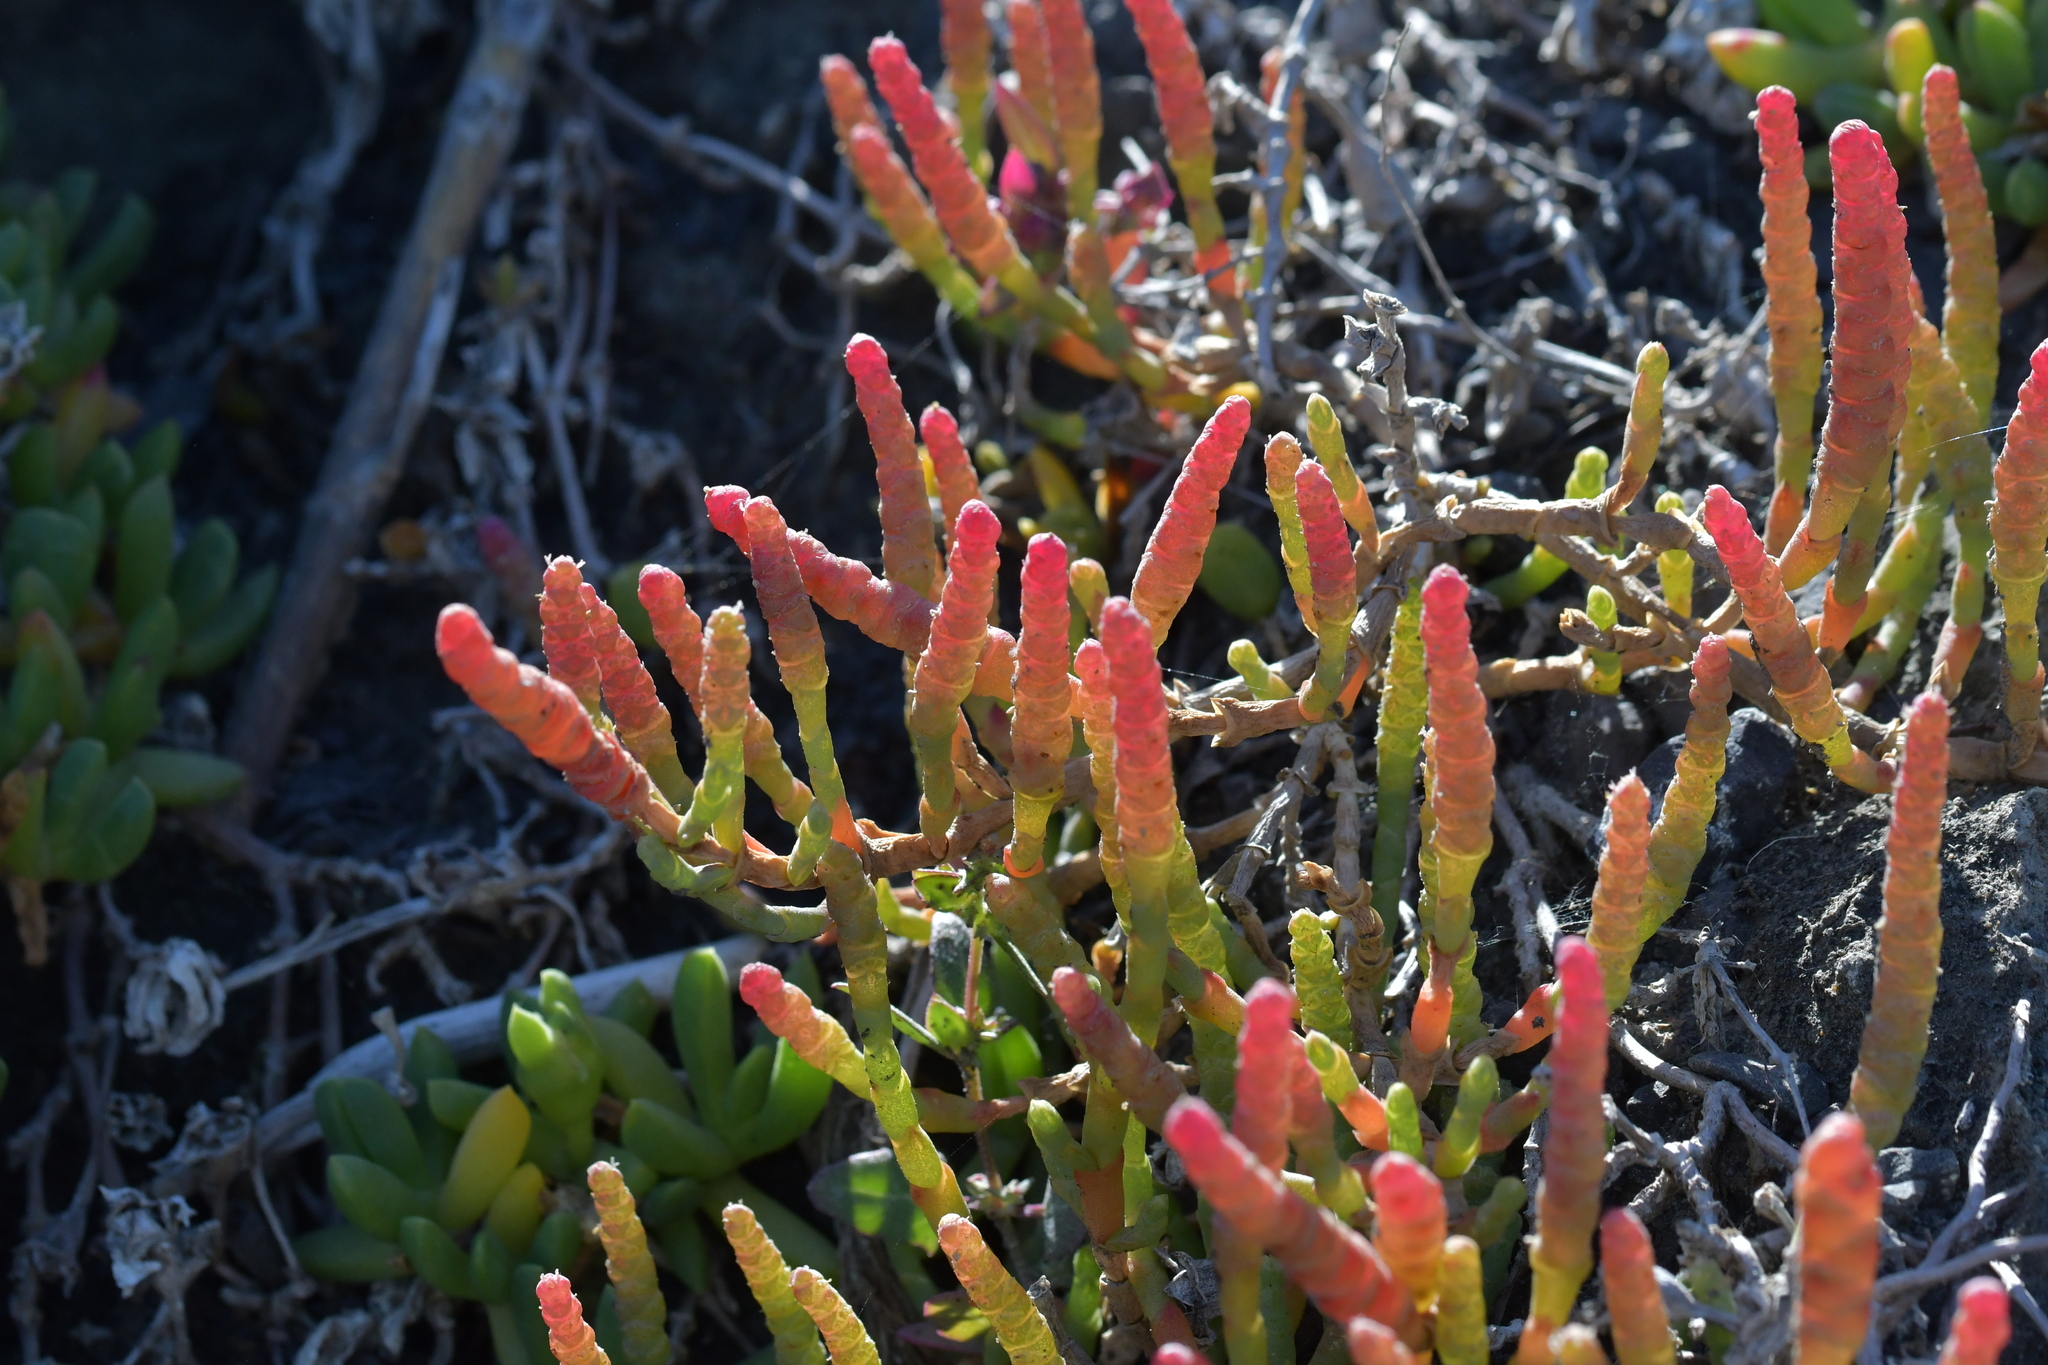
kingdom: Plantae
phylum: Tracheophyta
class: Magnoliopsida
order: Caryophyllales
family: Amaranthaceae
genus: Salicornia
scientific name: Salicornia quinqueflora
